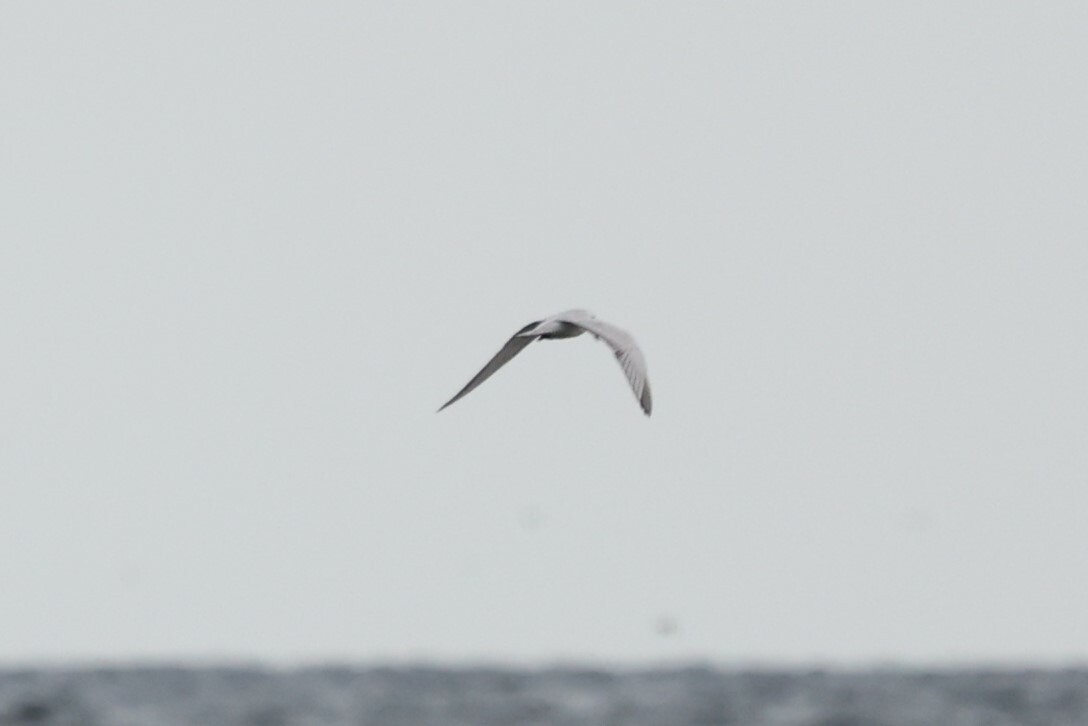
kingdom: Animalia
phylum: Chordata
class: Aves
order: Charadriiformes
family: Laridae
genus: Chlidonias
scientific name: Chlidonias hybrida
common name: Whiskered tern
